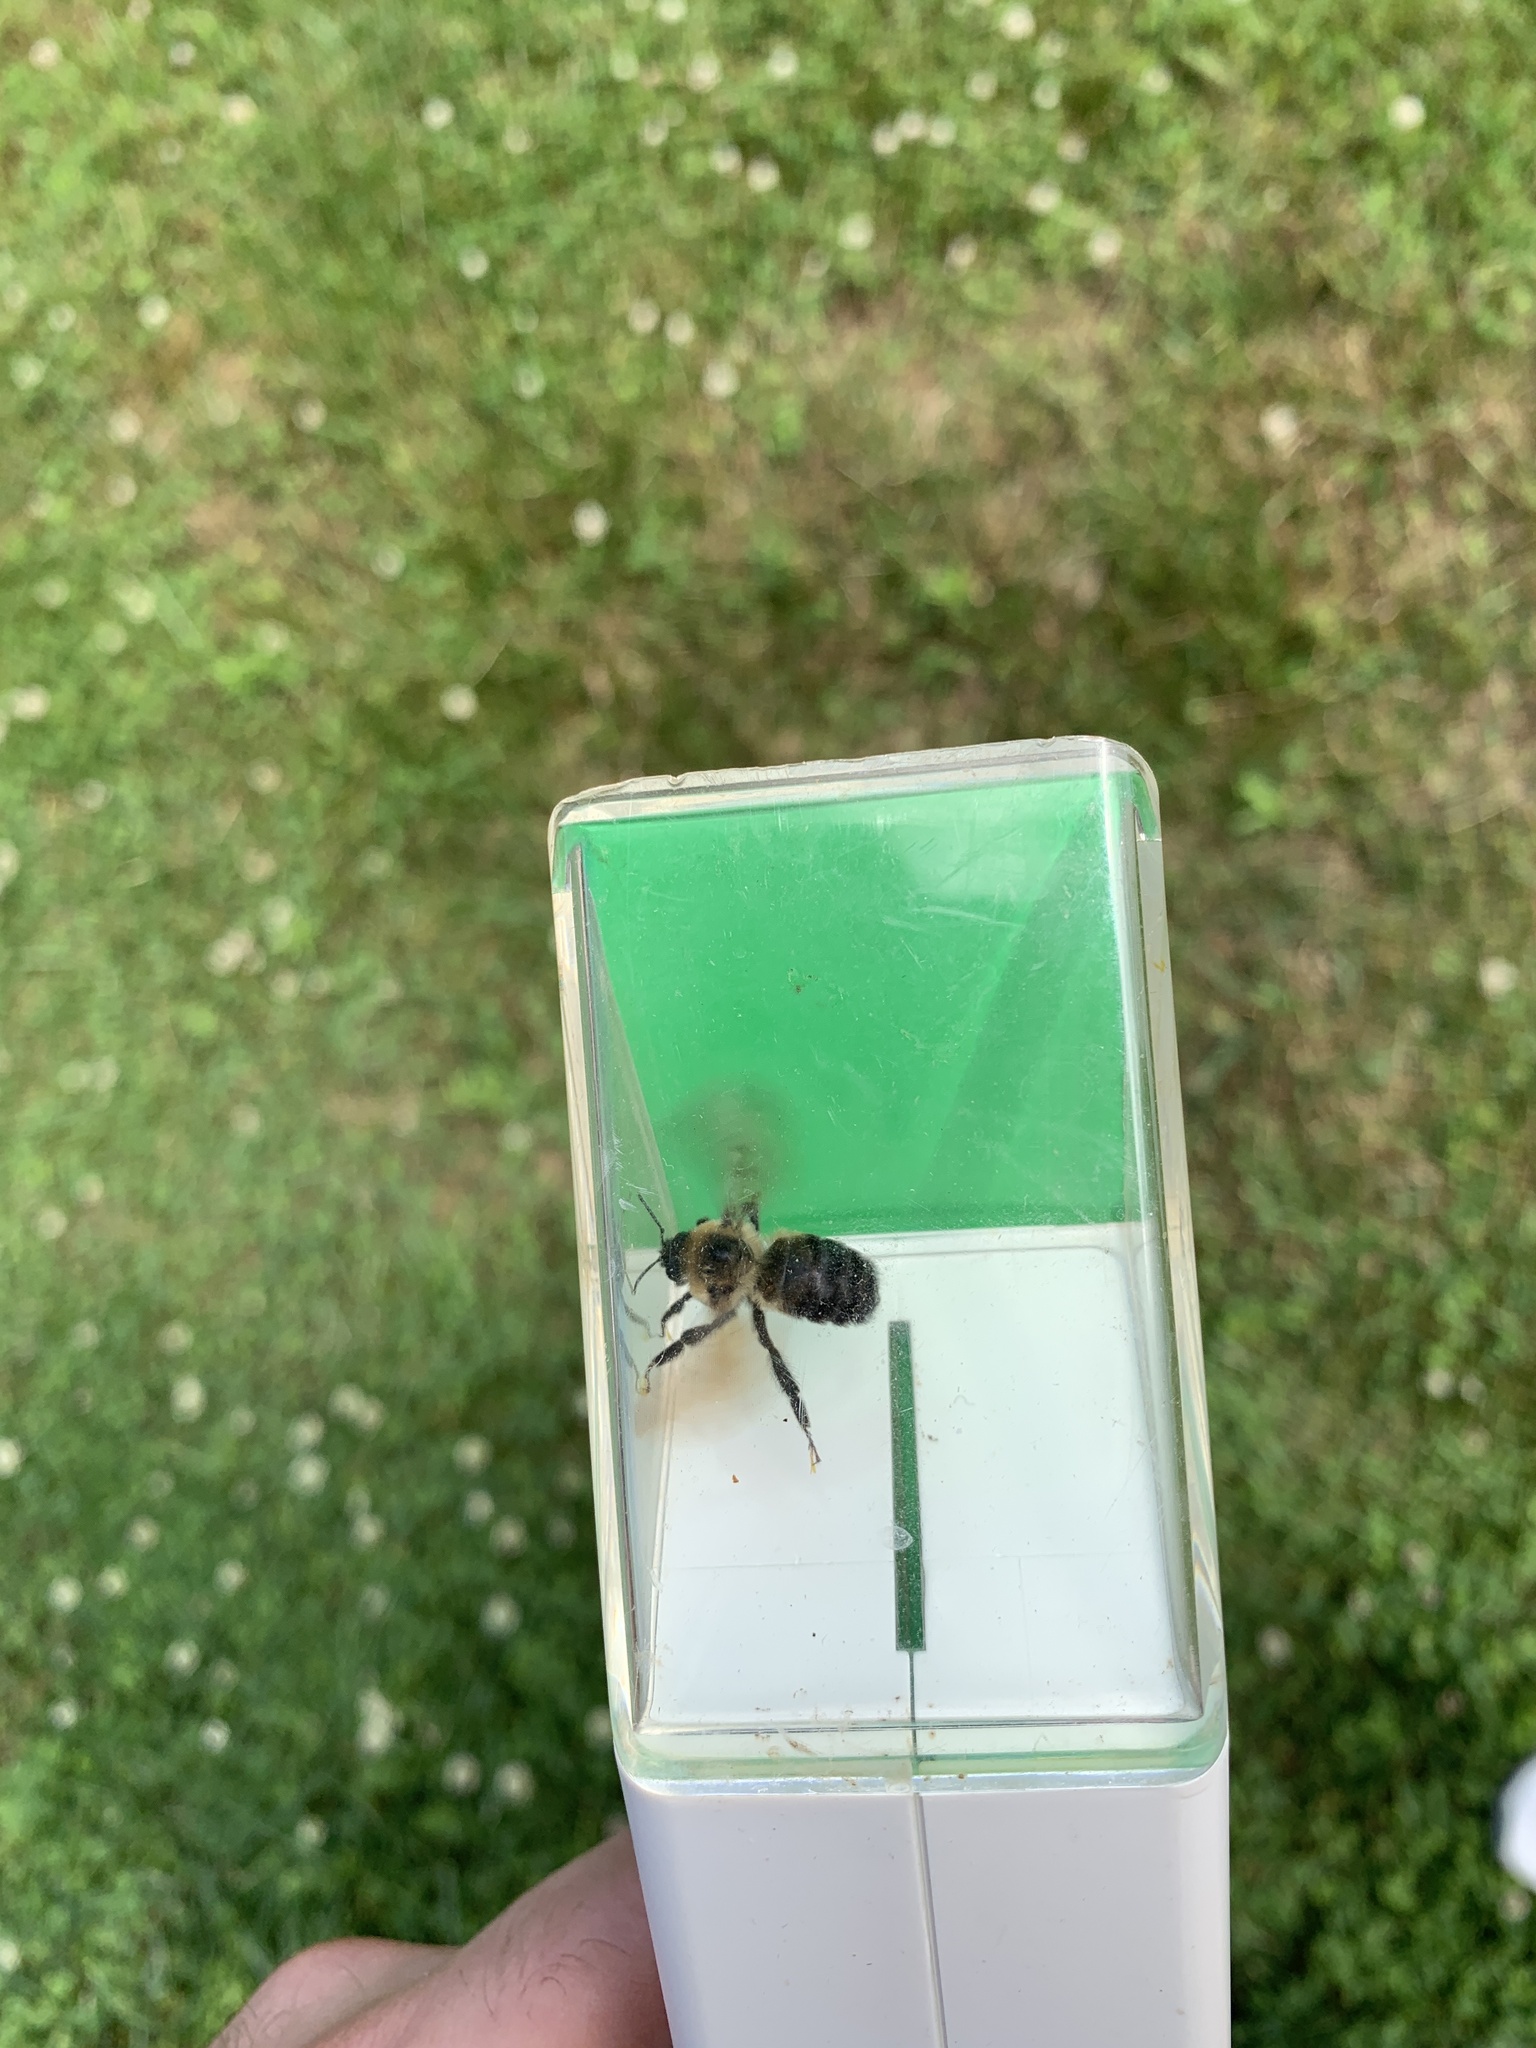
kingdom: Animalia
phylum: Arthropoda
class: Insecta
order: Hymenoptera
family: Apidae
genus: Bombus
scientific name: Bombus griseocollis
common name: Brown-belted bumble bee
